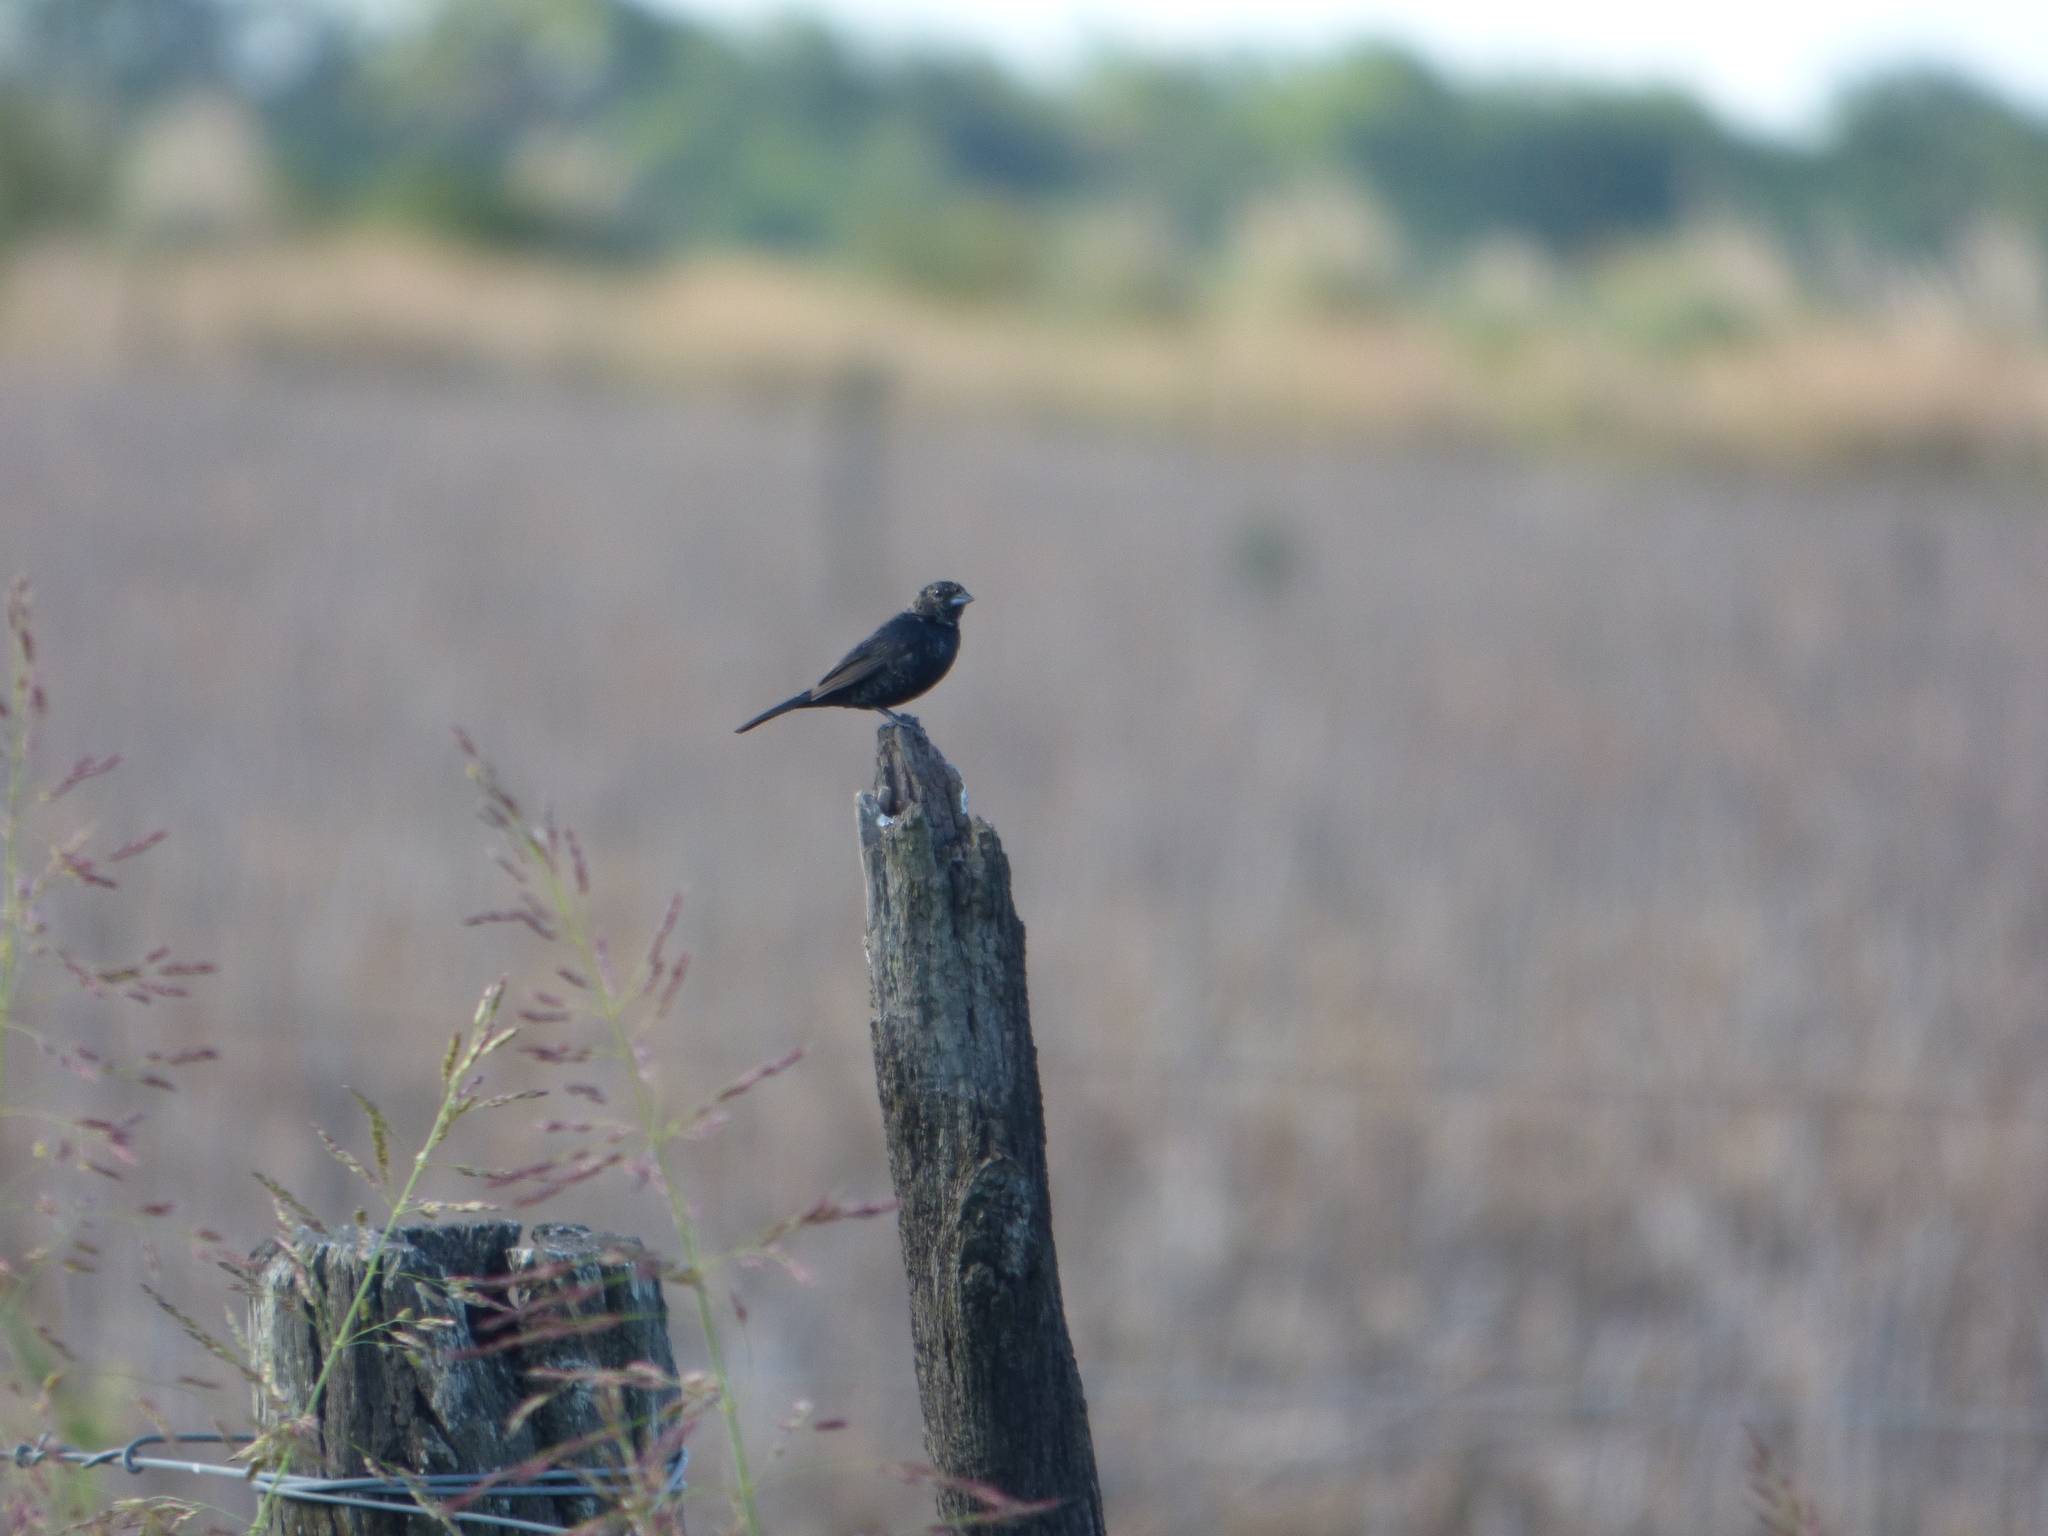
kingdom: Animalia
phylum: Chordata
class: Aves
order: Passeriformes
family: Thraupidae
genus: Volatinia
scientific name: Volatinia jacarina
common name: Blue-black grassquit
